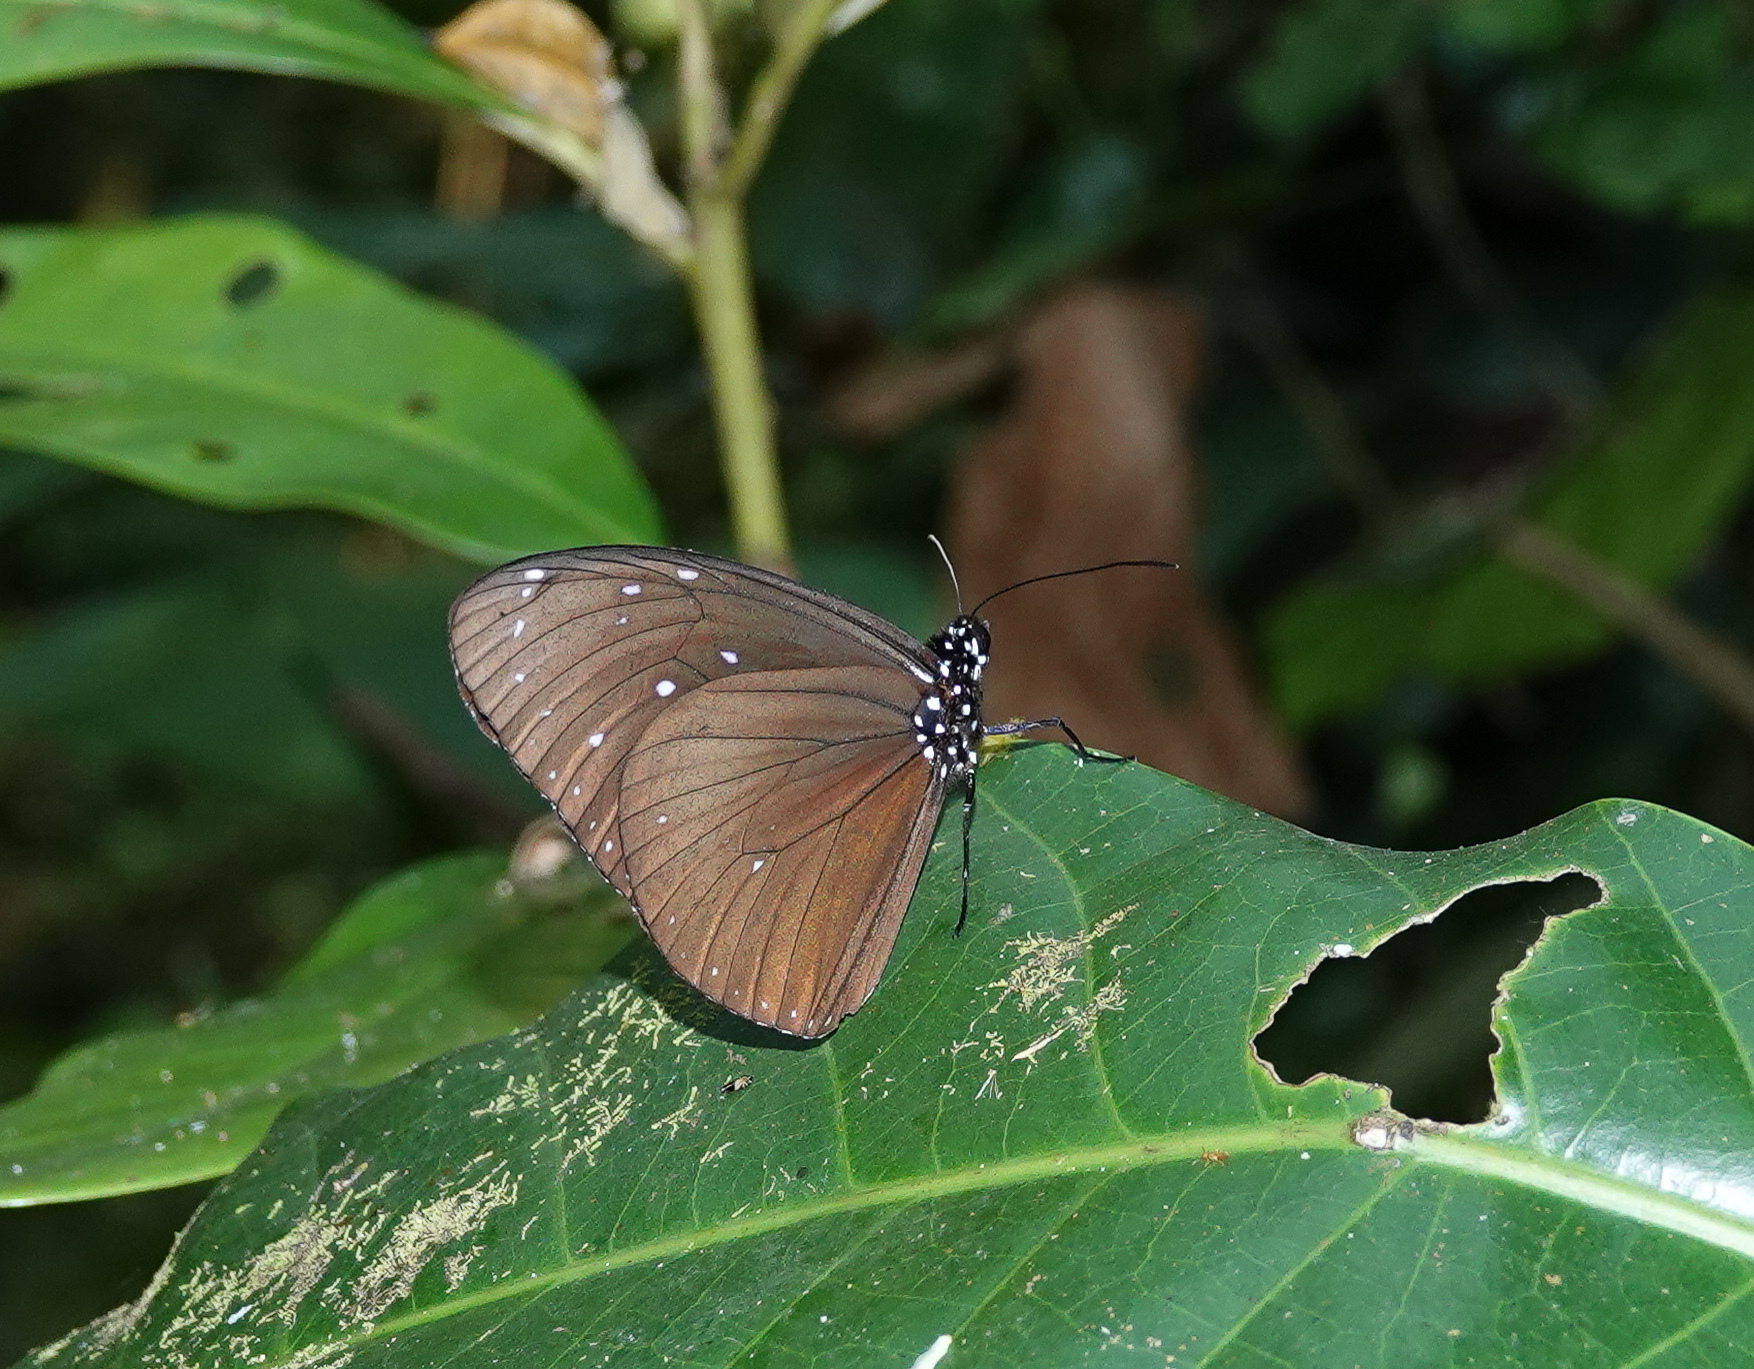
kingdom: Animalia
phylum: Arthropoda
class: Insecta
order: Lepidoptera
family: Nymphalidae
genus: Euploea
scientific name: Euploea mulciber
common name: Striped blue crow butterfly
